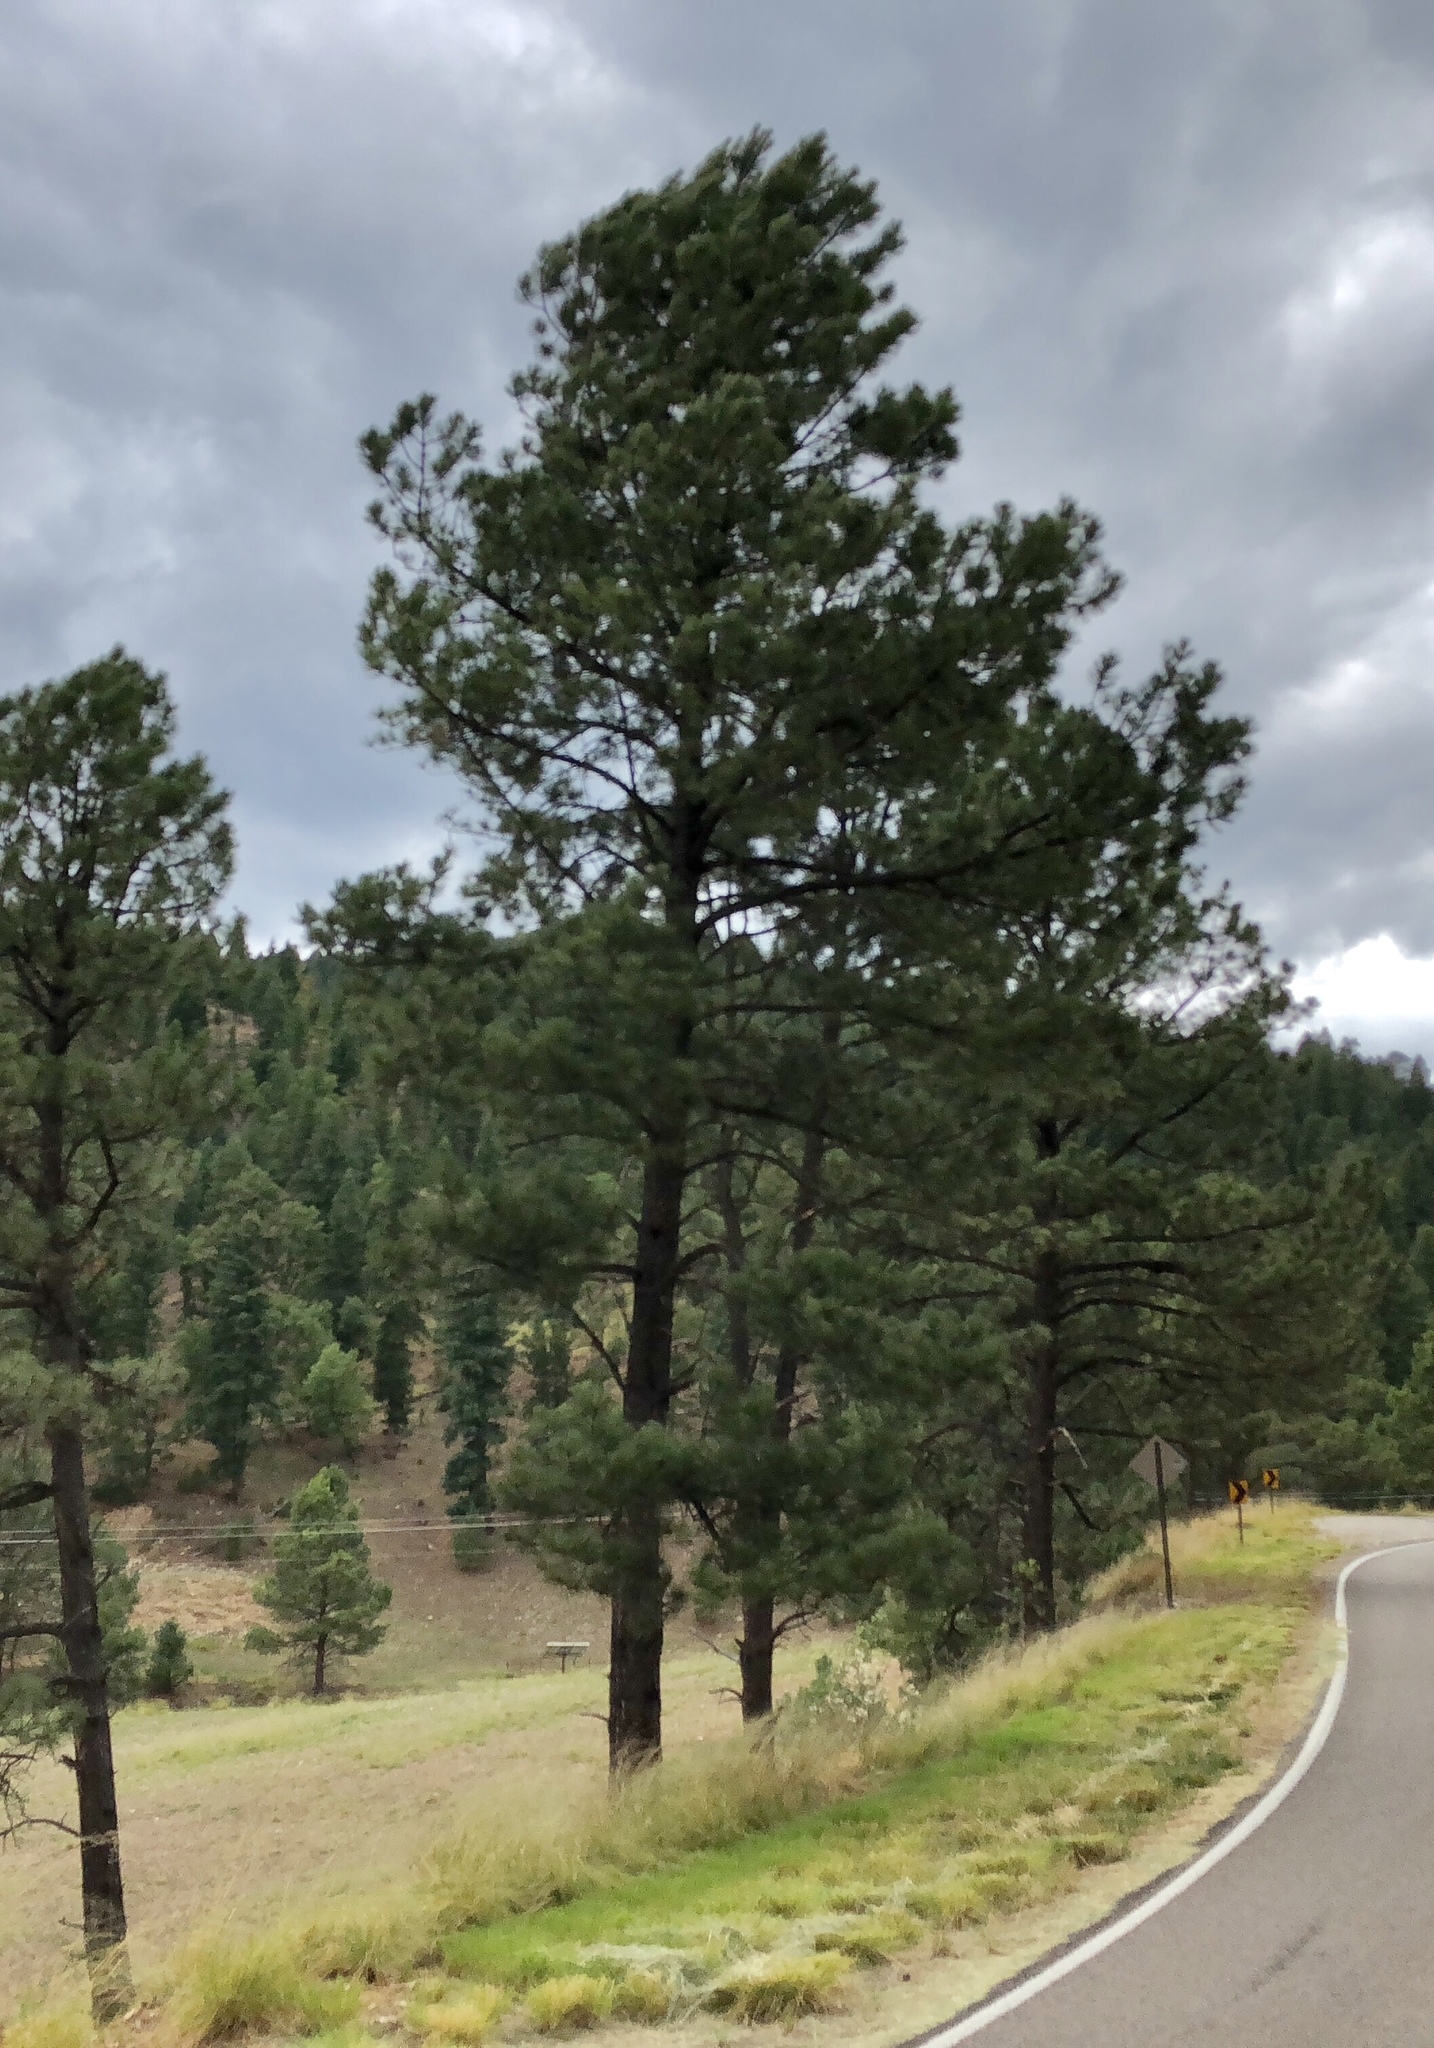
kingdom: Plantae
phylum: Tracheophyta
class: Pinopsida
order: Pinales
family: Pinaceae
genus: Pinus
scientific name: Pinus ponderosa
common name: Western yellow-pine
